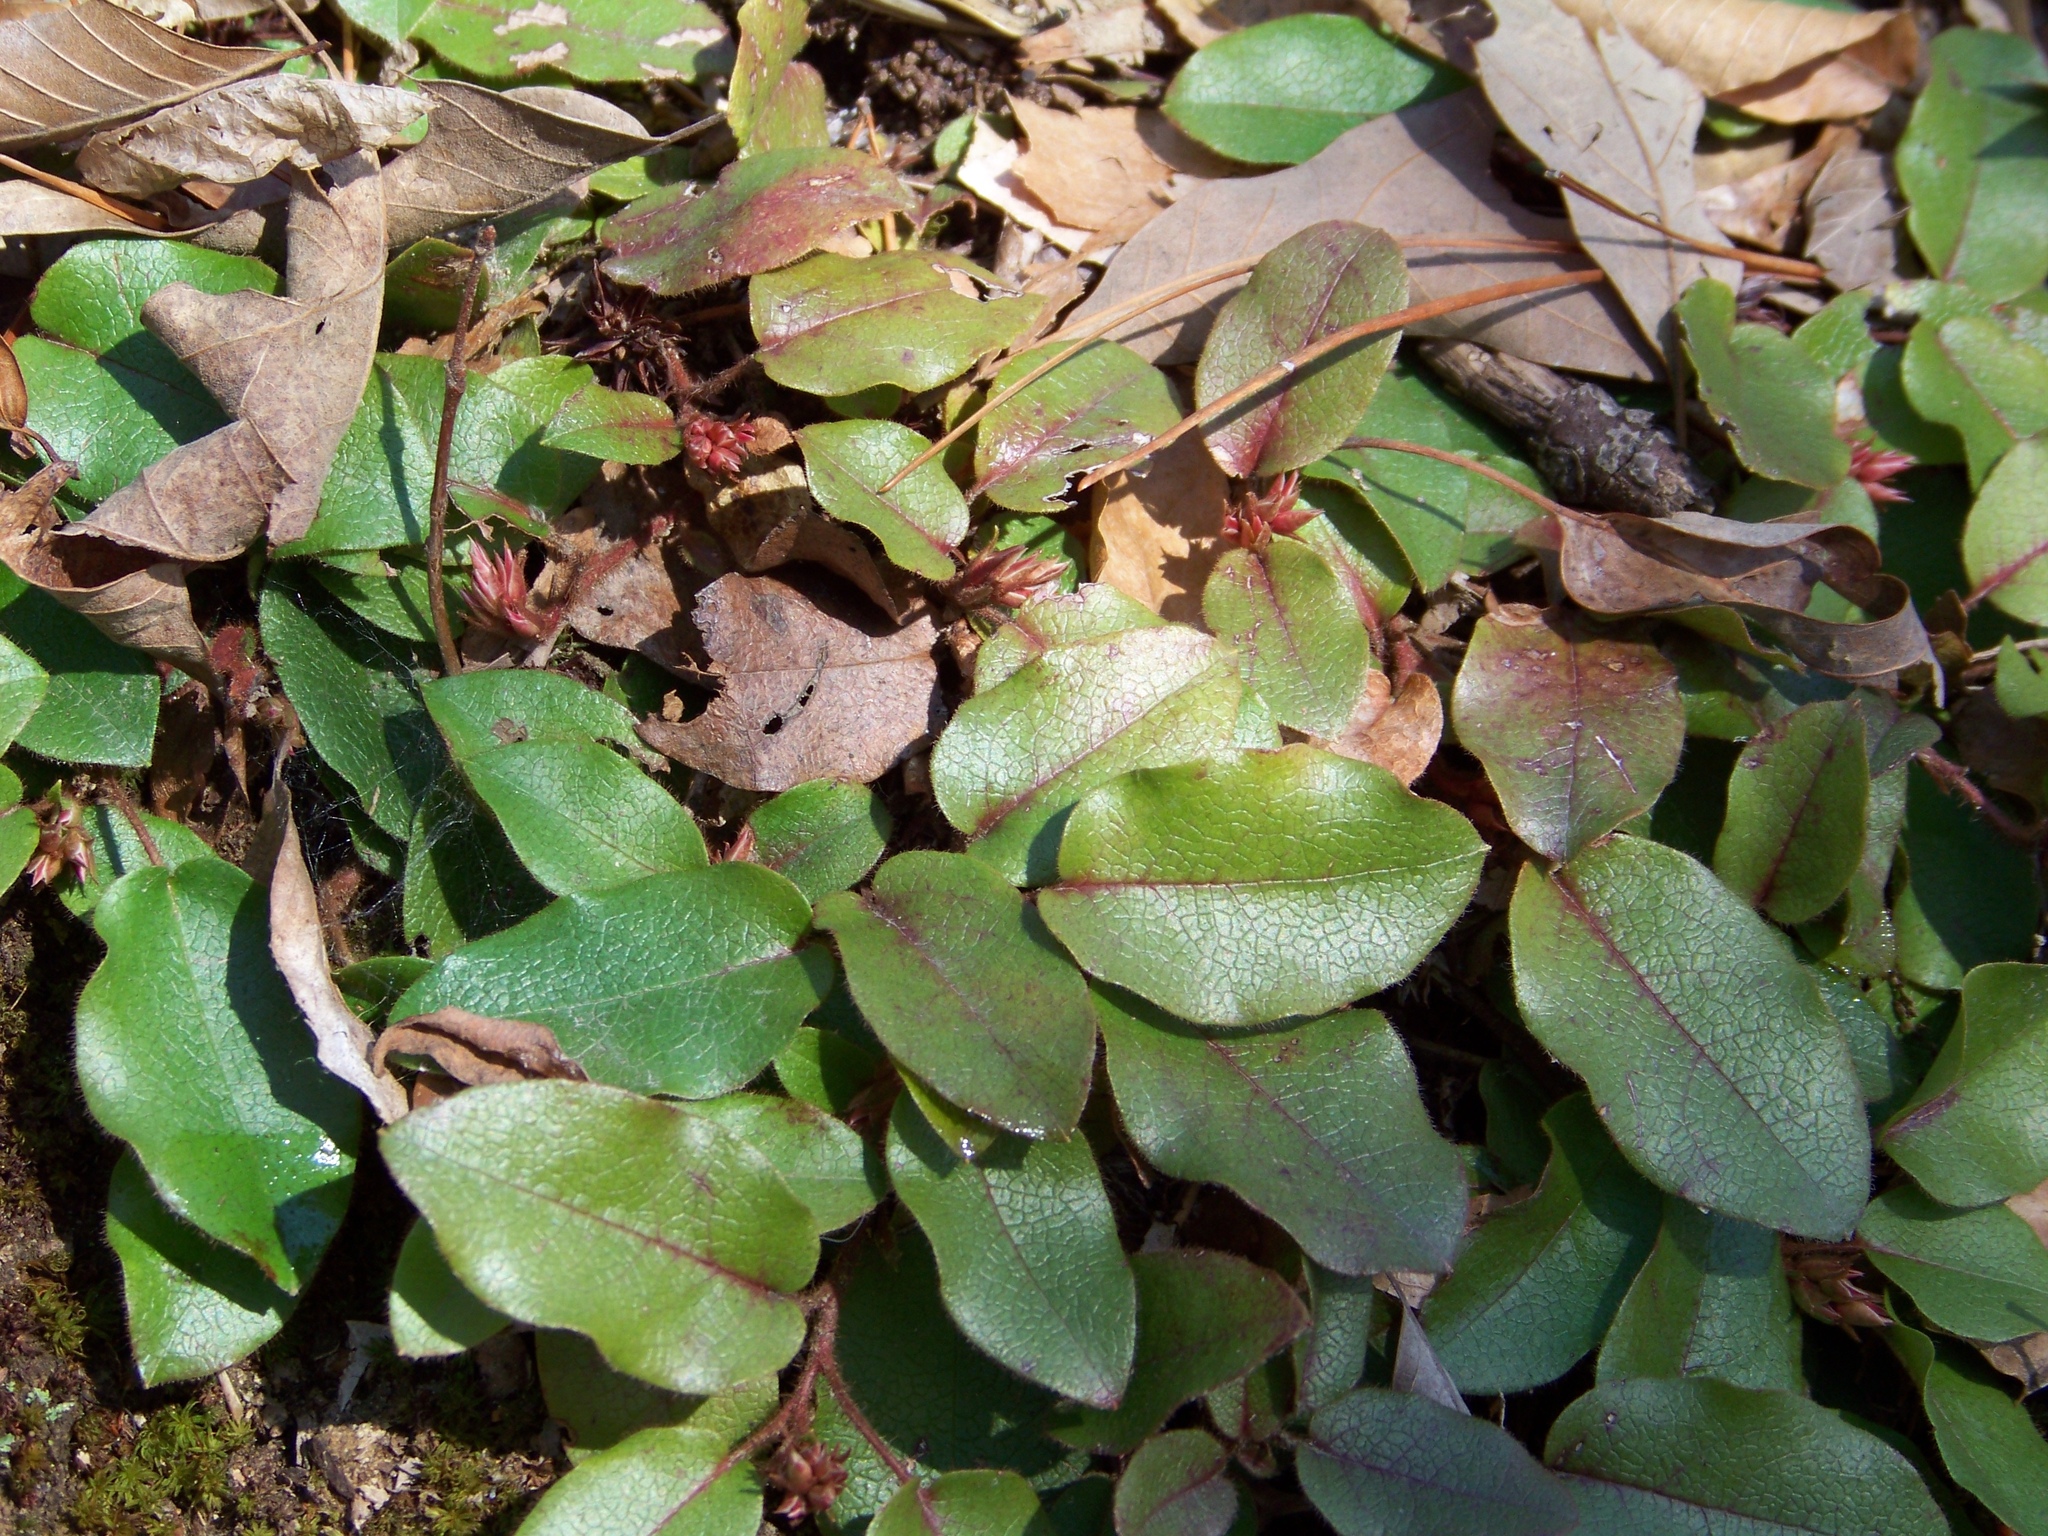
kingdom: Plantae
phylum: Tracheophyta
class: Magnoliopsida
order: Ericales
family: Ericaceae
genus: Epigaea
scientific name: Epigaea repens
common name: Gravelroot
